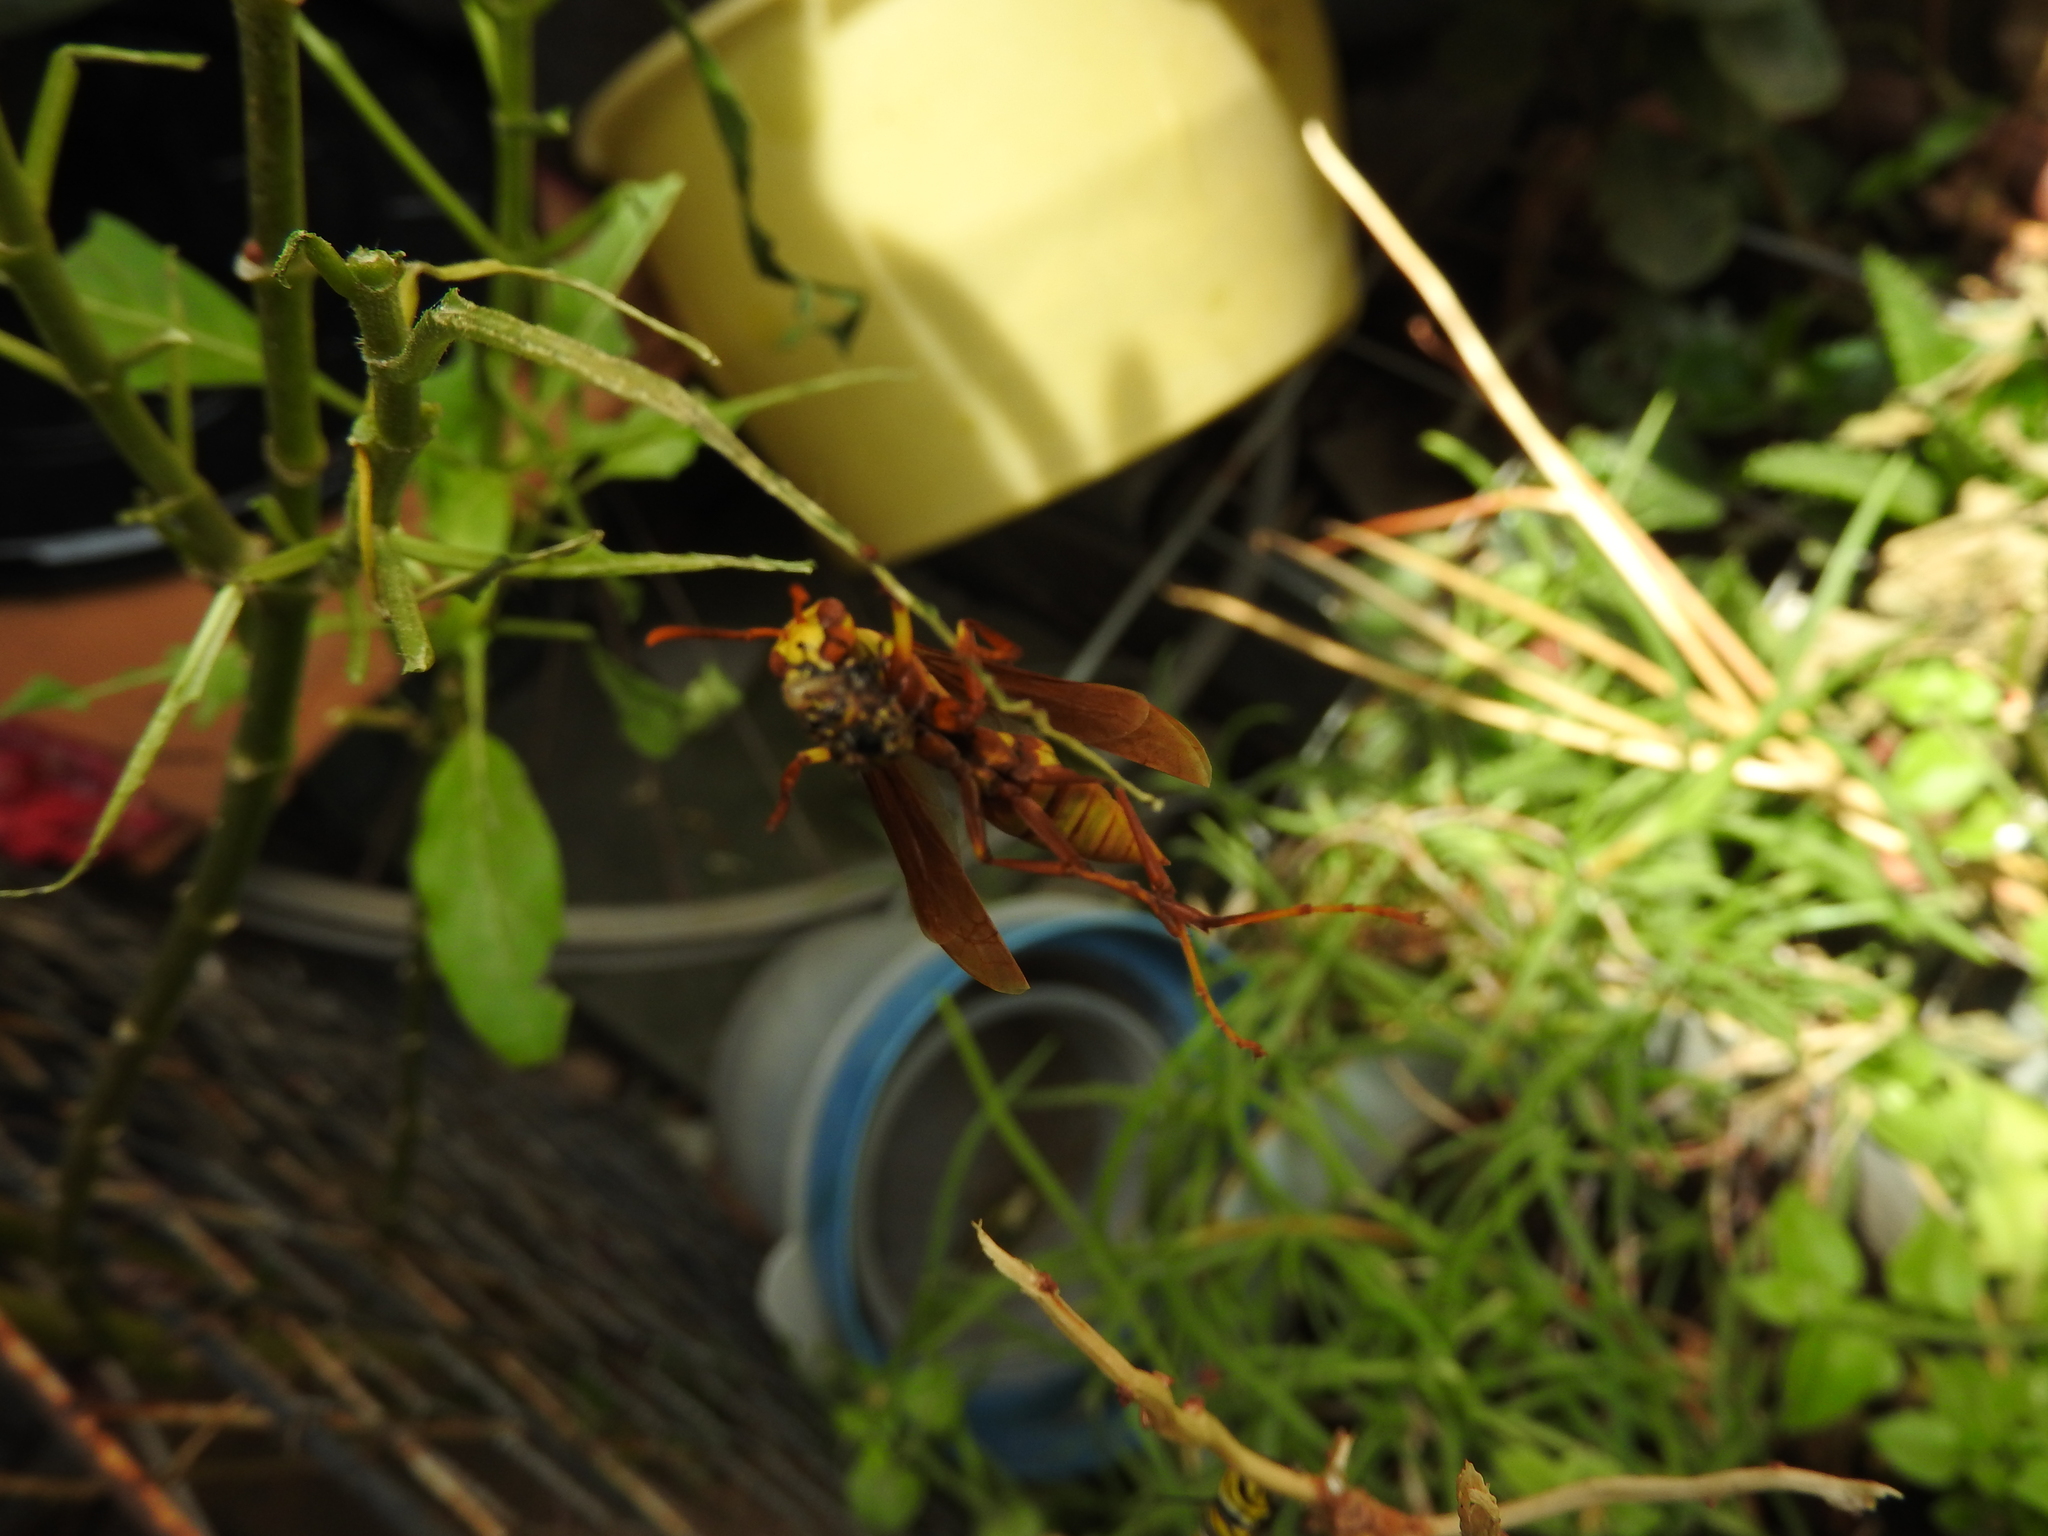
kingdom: Animalia
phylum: Arthropoda
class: Insecta
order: Hymenoptera
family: Eumenidae
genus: Polistes
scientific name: Polistes major
